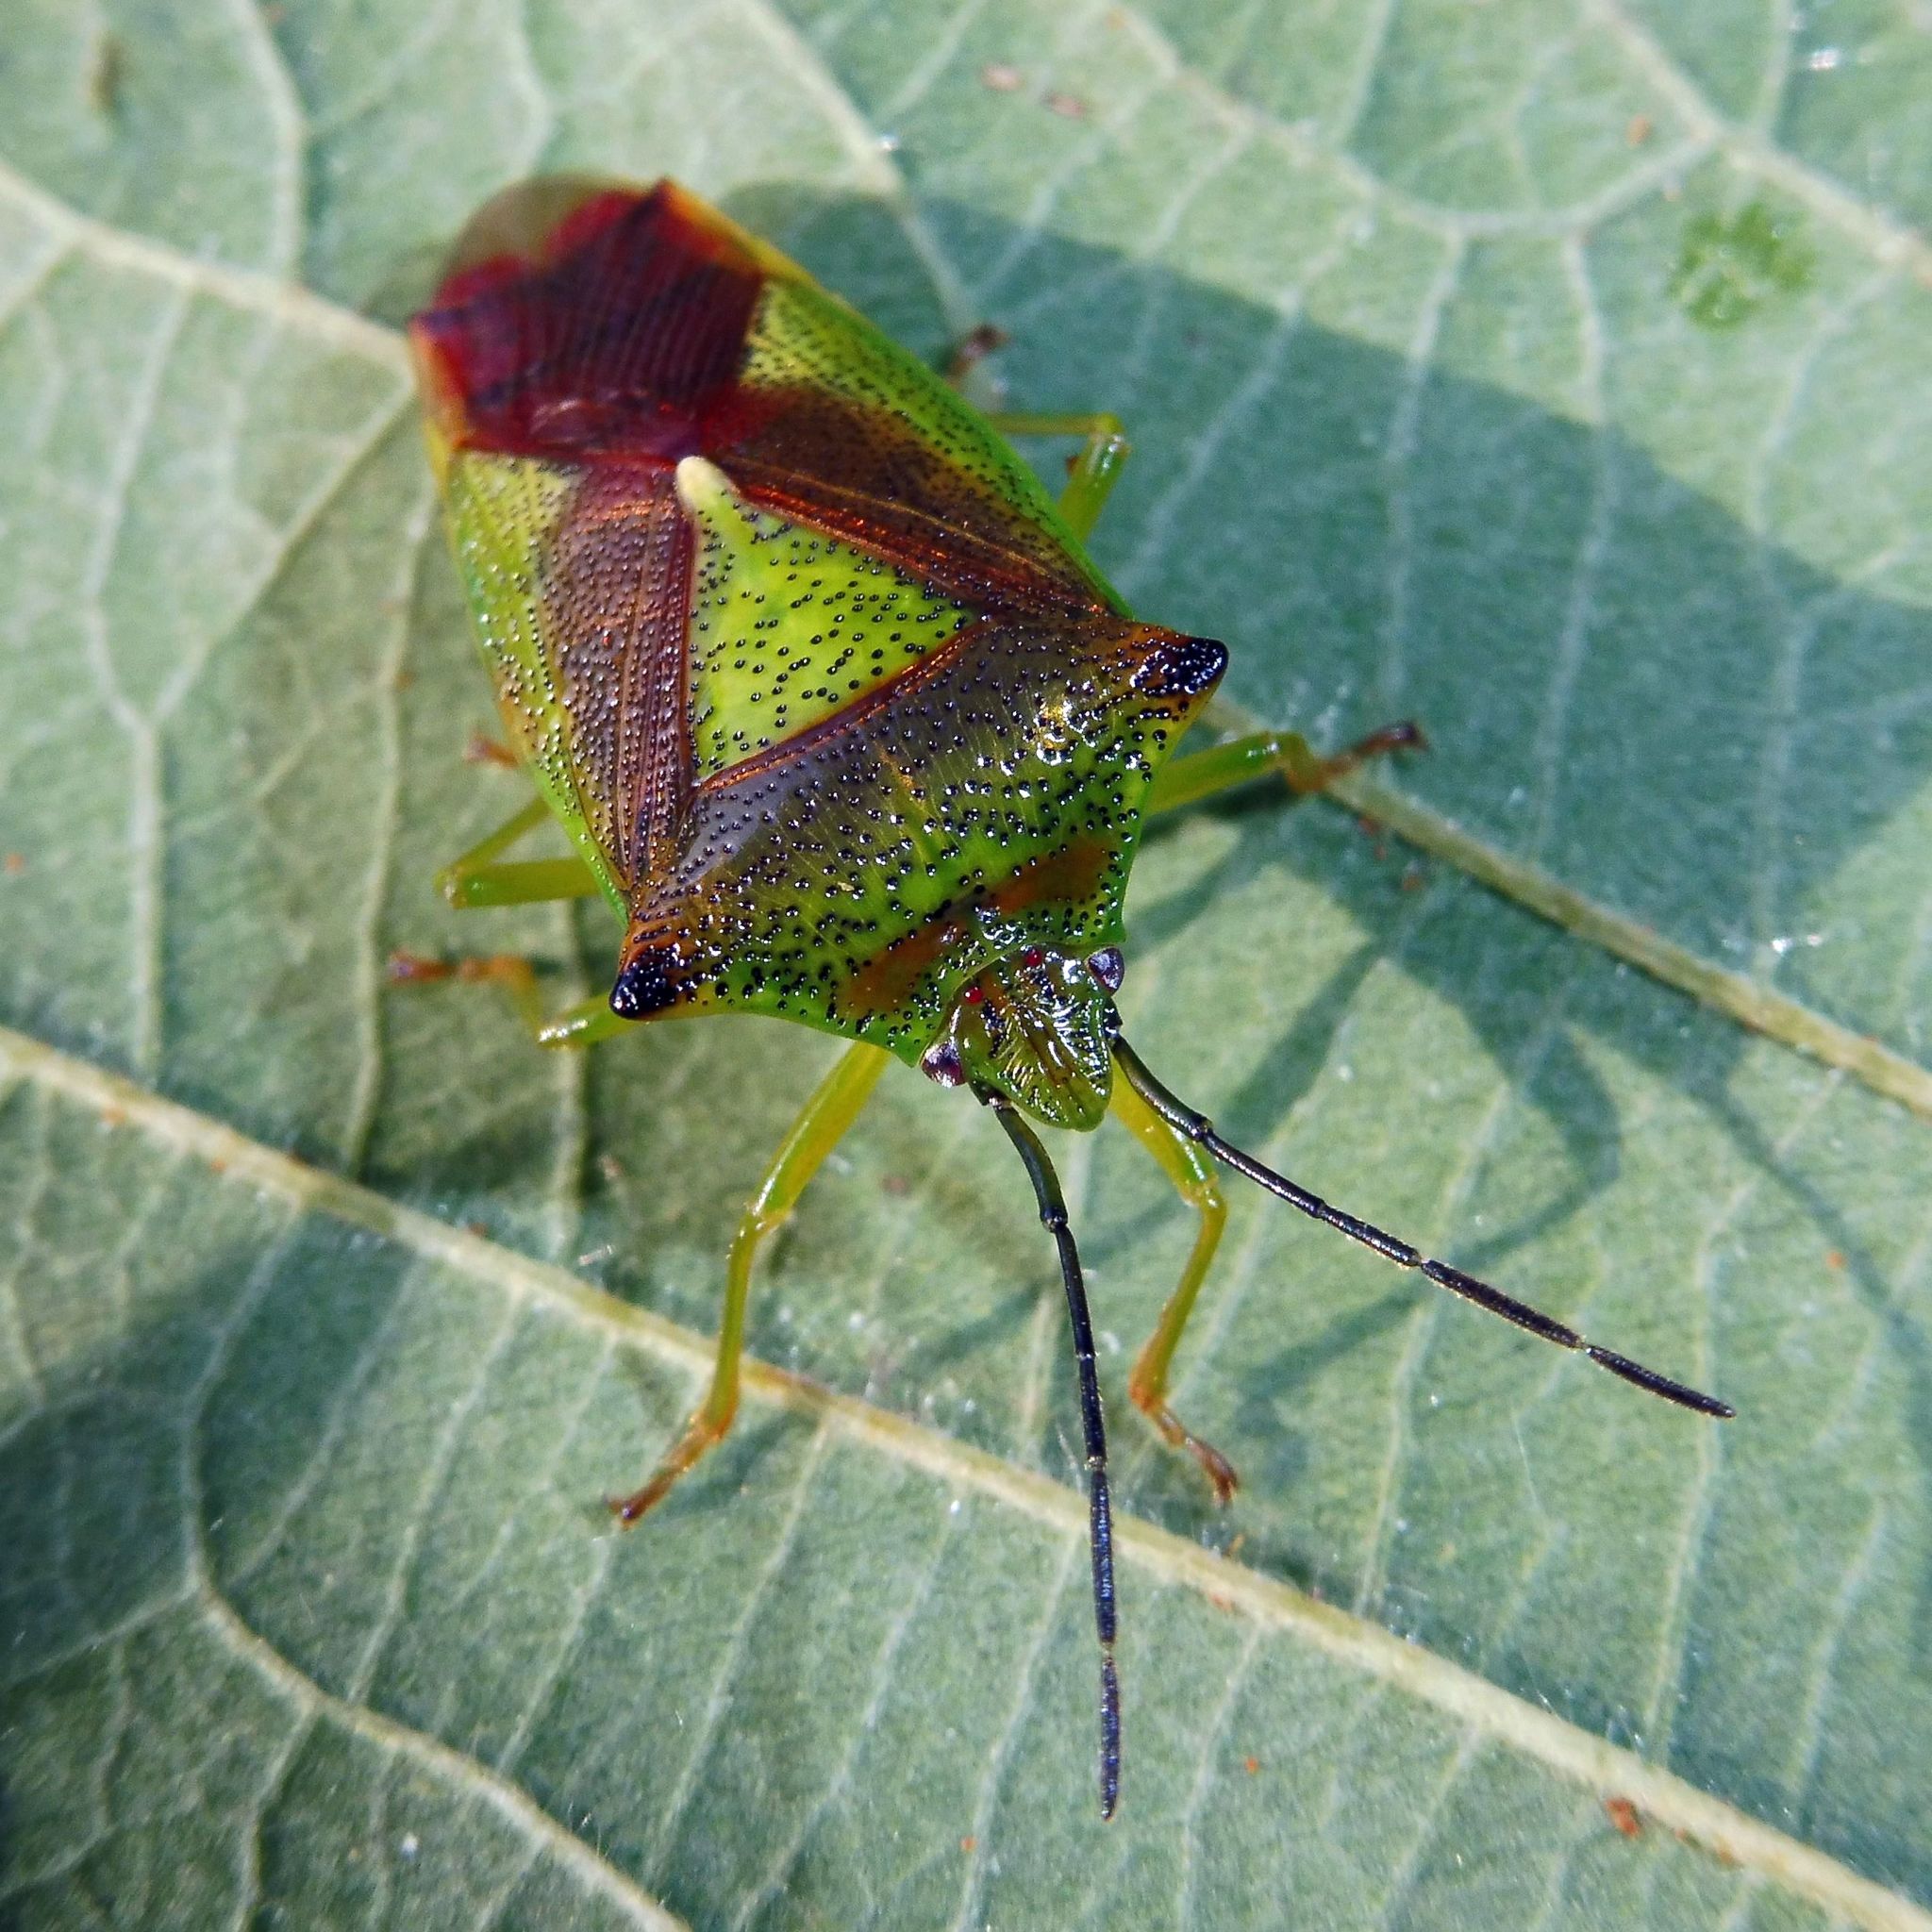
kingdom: Animalia
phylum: Arthropoda
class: Insecta
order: Hemiptera
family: Acanthosomatidae
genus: Acanthosoma
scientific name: Acanthosoma haemorrhoidale
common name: Hawthorn shieldbug
